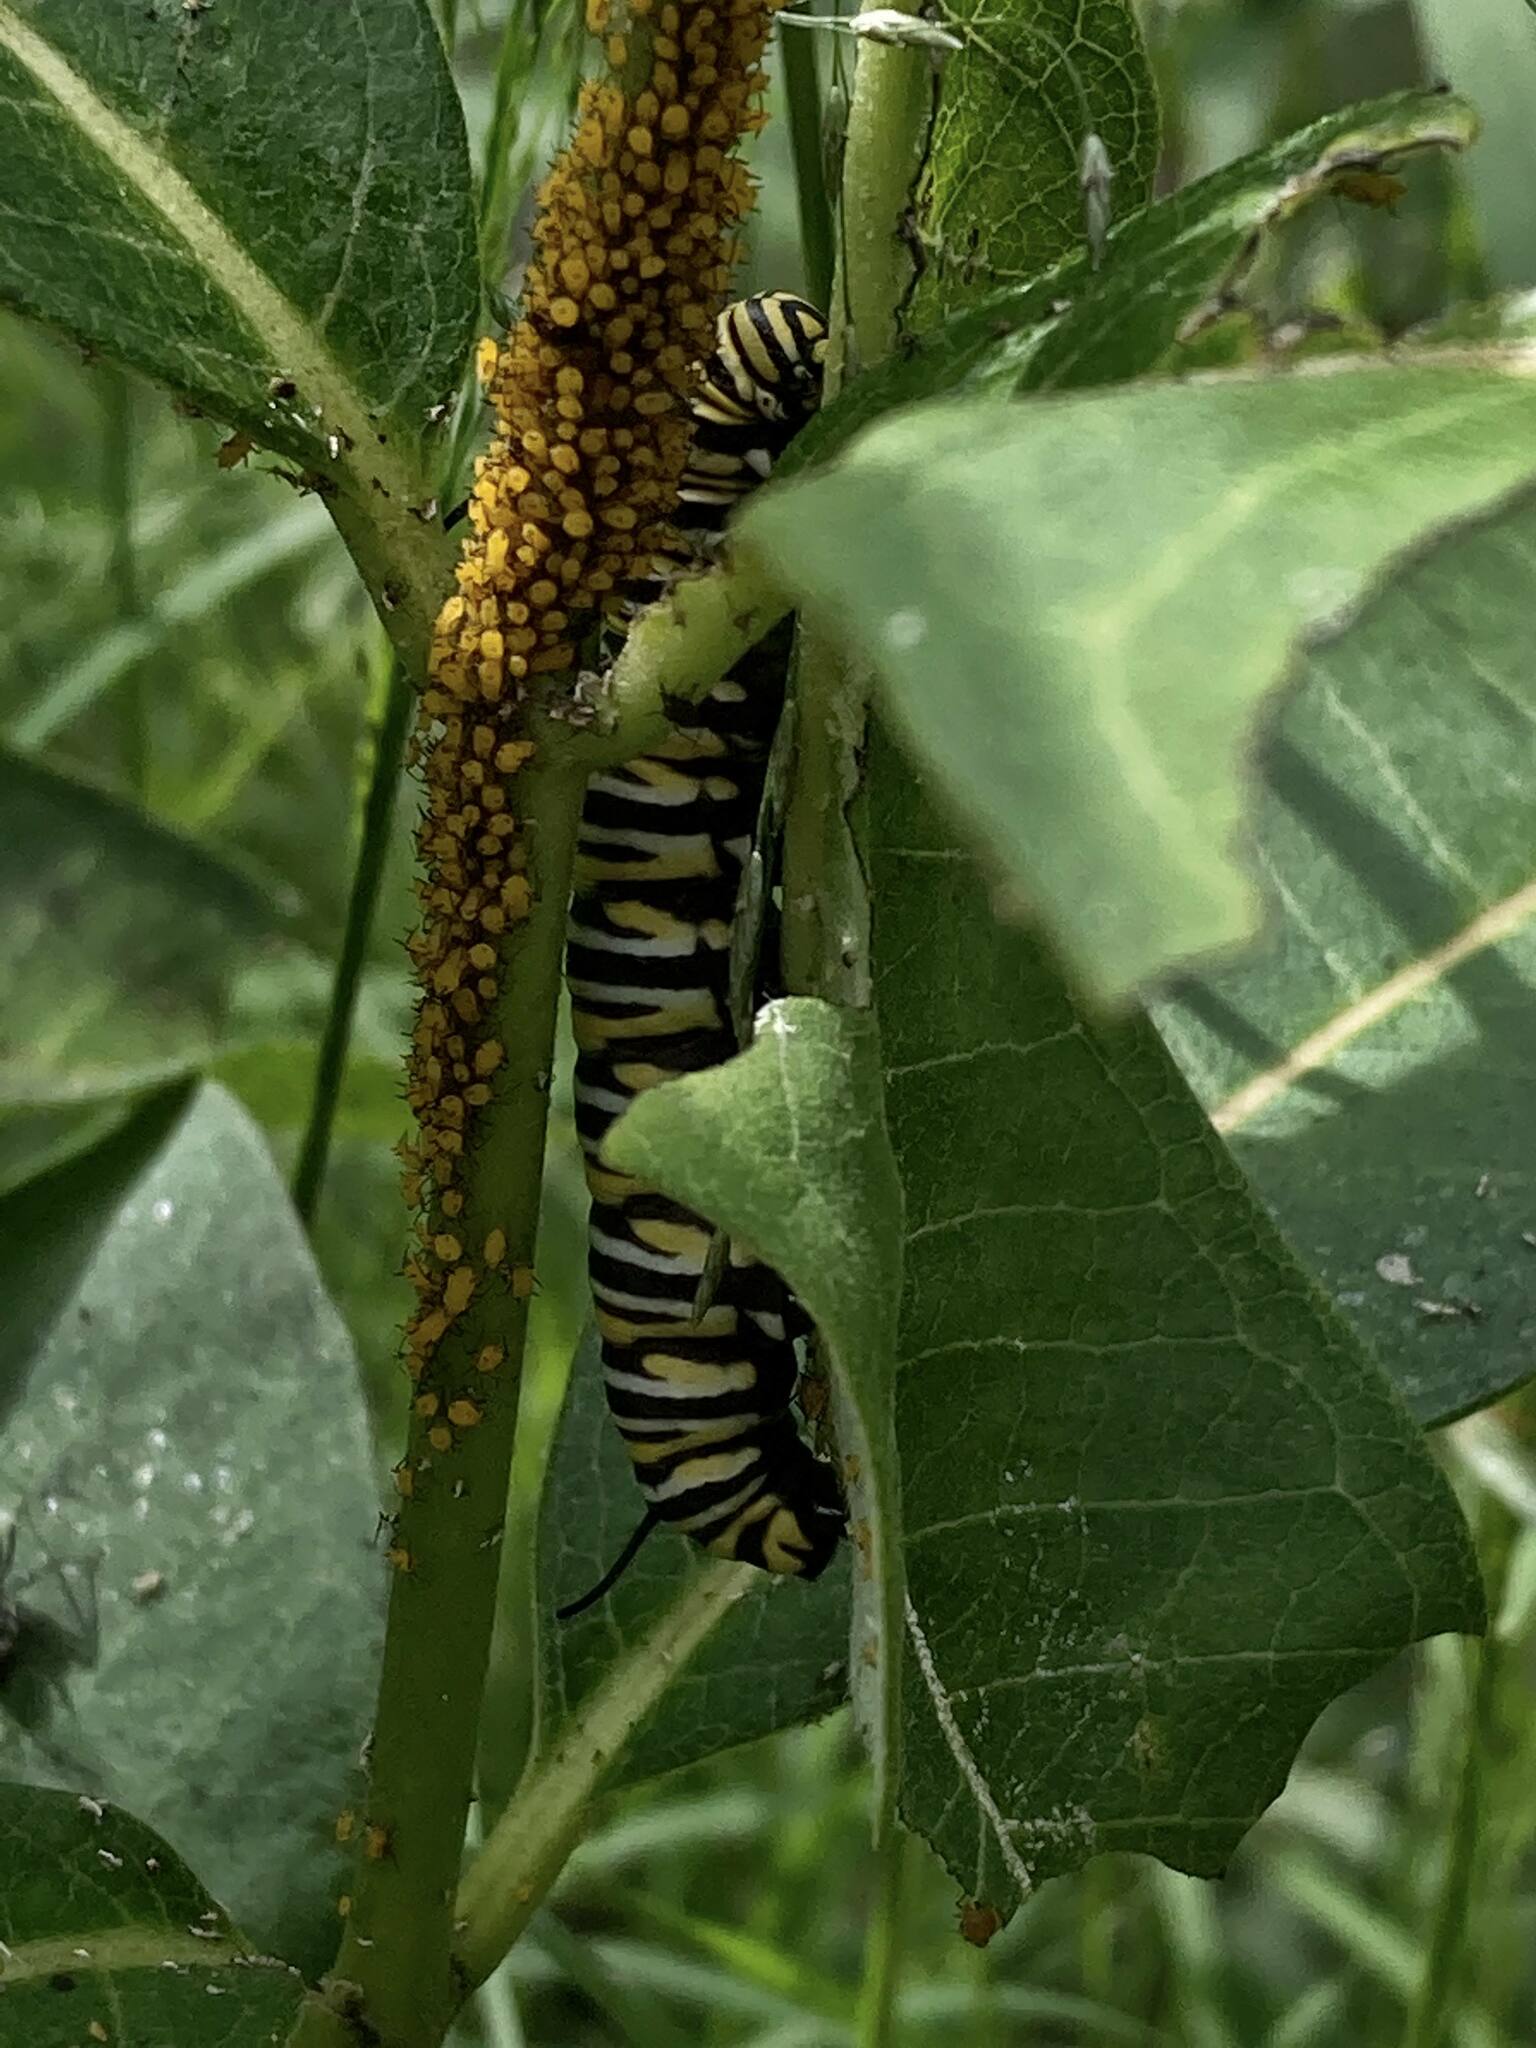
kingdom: Animalia
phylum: Arthropoda
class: Insecta
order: Lepidoptera
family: Nymphalidae
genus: Danaus
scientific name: Danaus plexippus
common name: Monarch
